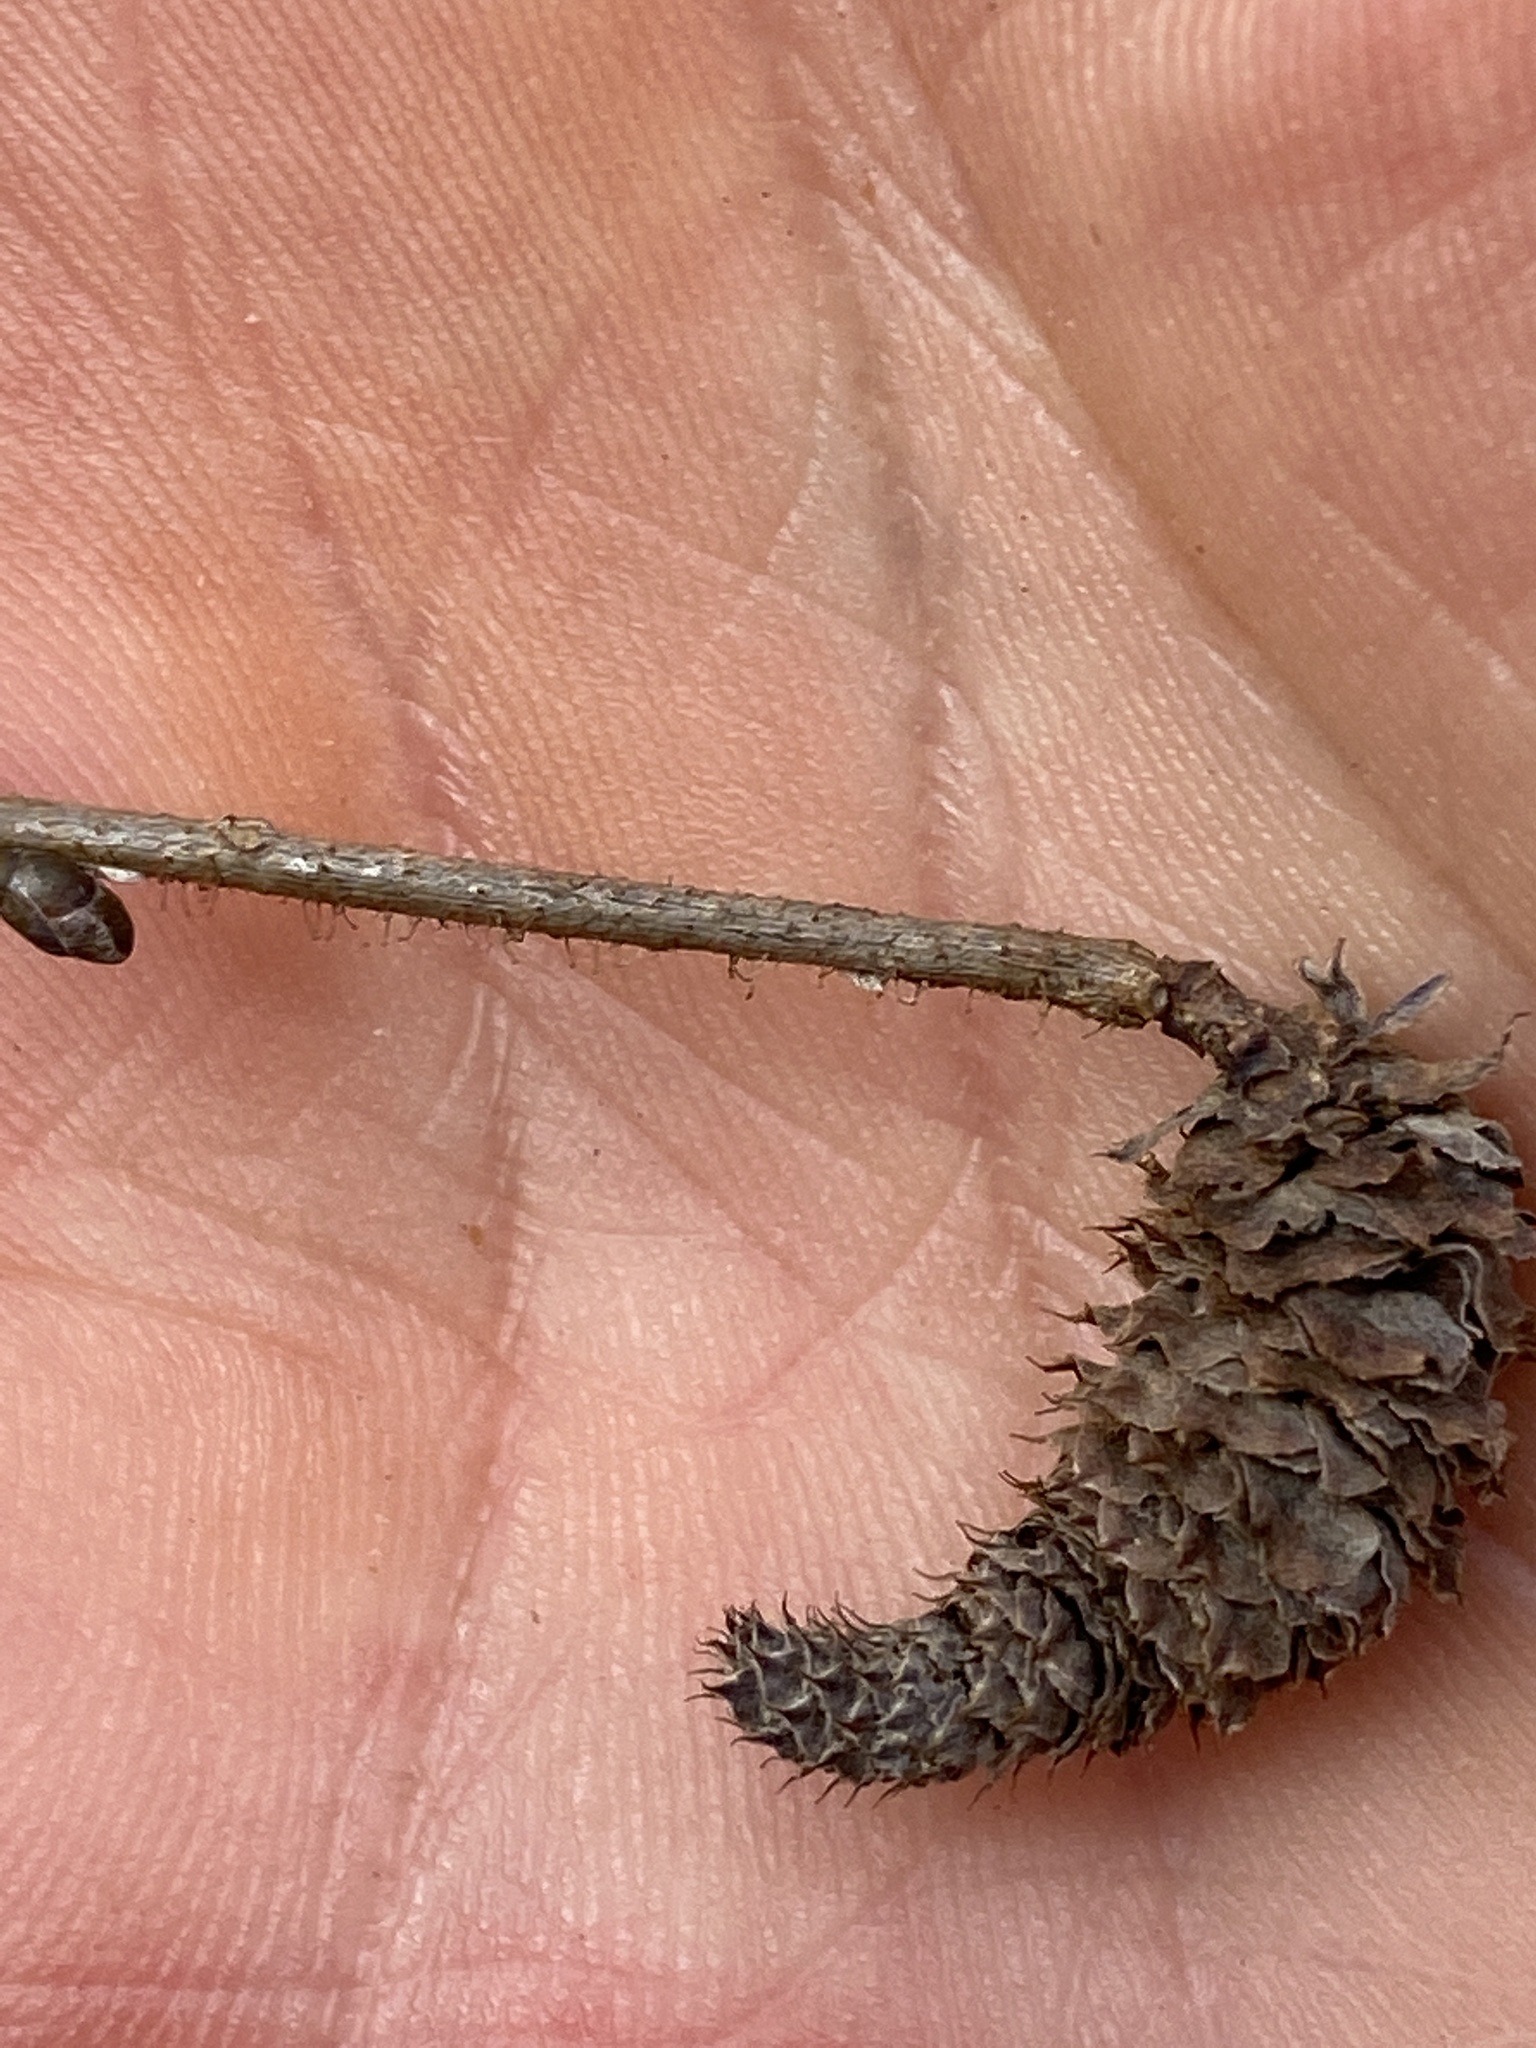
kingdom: Plantae
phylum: Tracheophyta
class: Magnoliopsida
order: Fagales
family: Betulaceae
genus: Corylus
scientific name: Corylus americana
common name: American hazel
